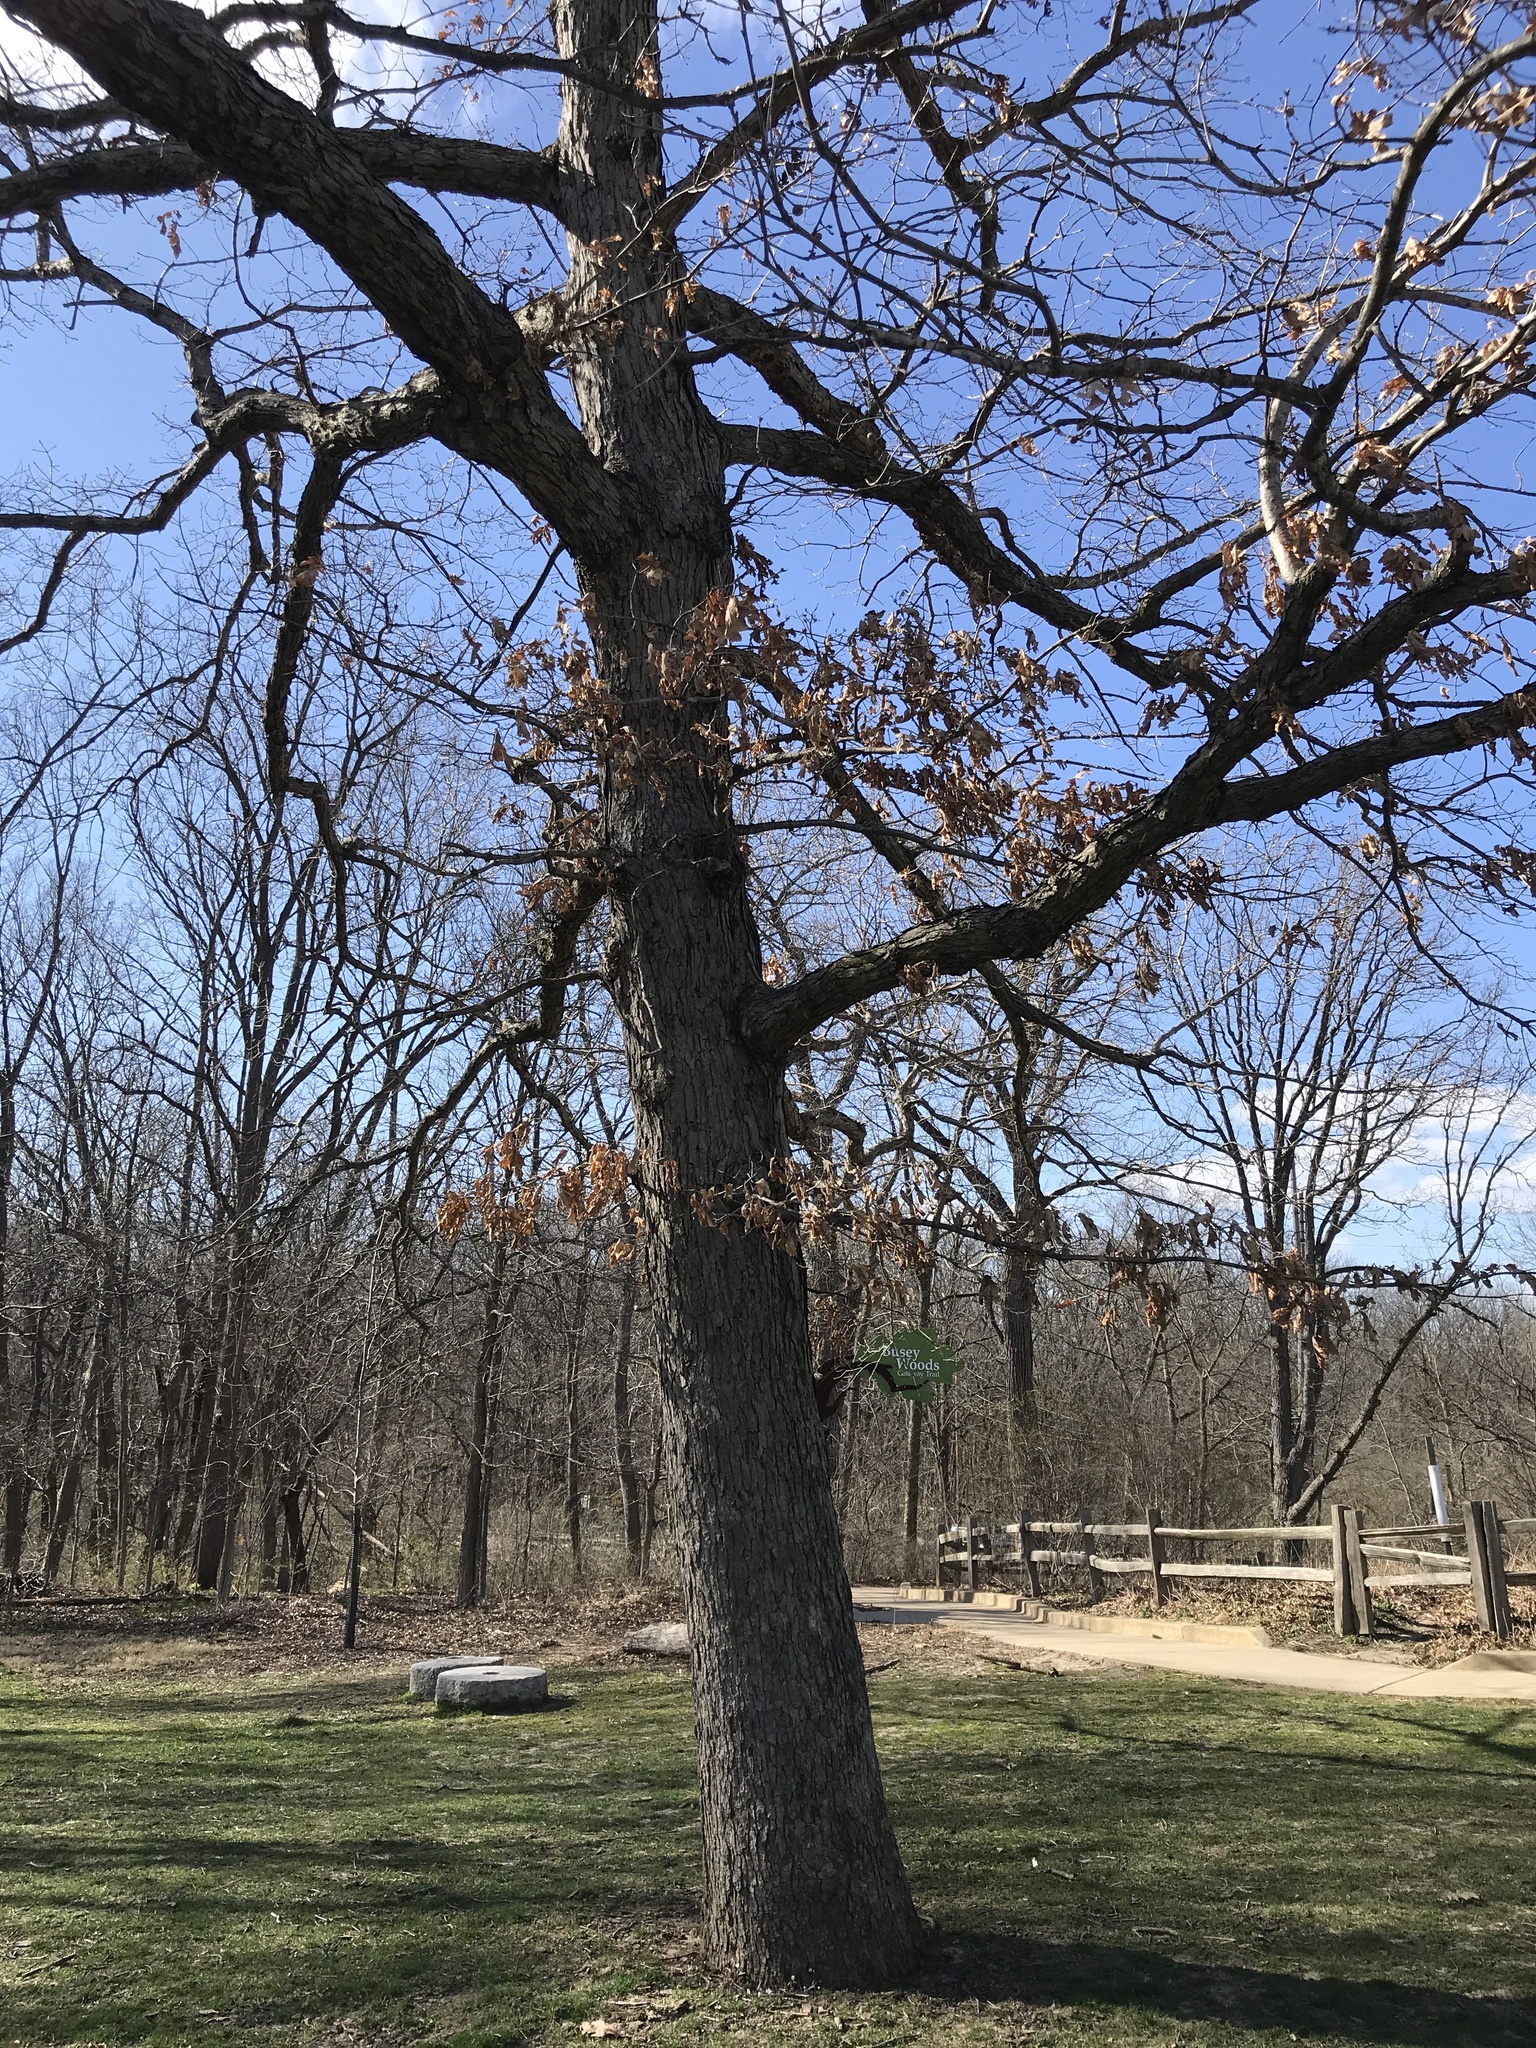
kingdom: Plantae
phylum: Tracheophyta
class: Magnoliopsida
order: Fagales
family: Fagaceae
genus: Quercus
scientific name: Quercus alba
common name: White oak
